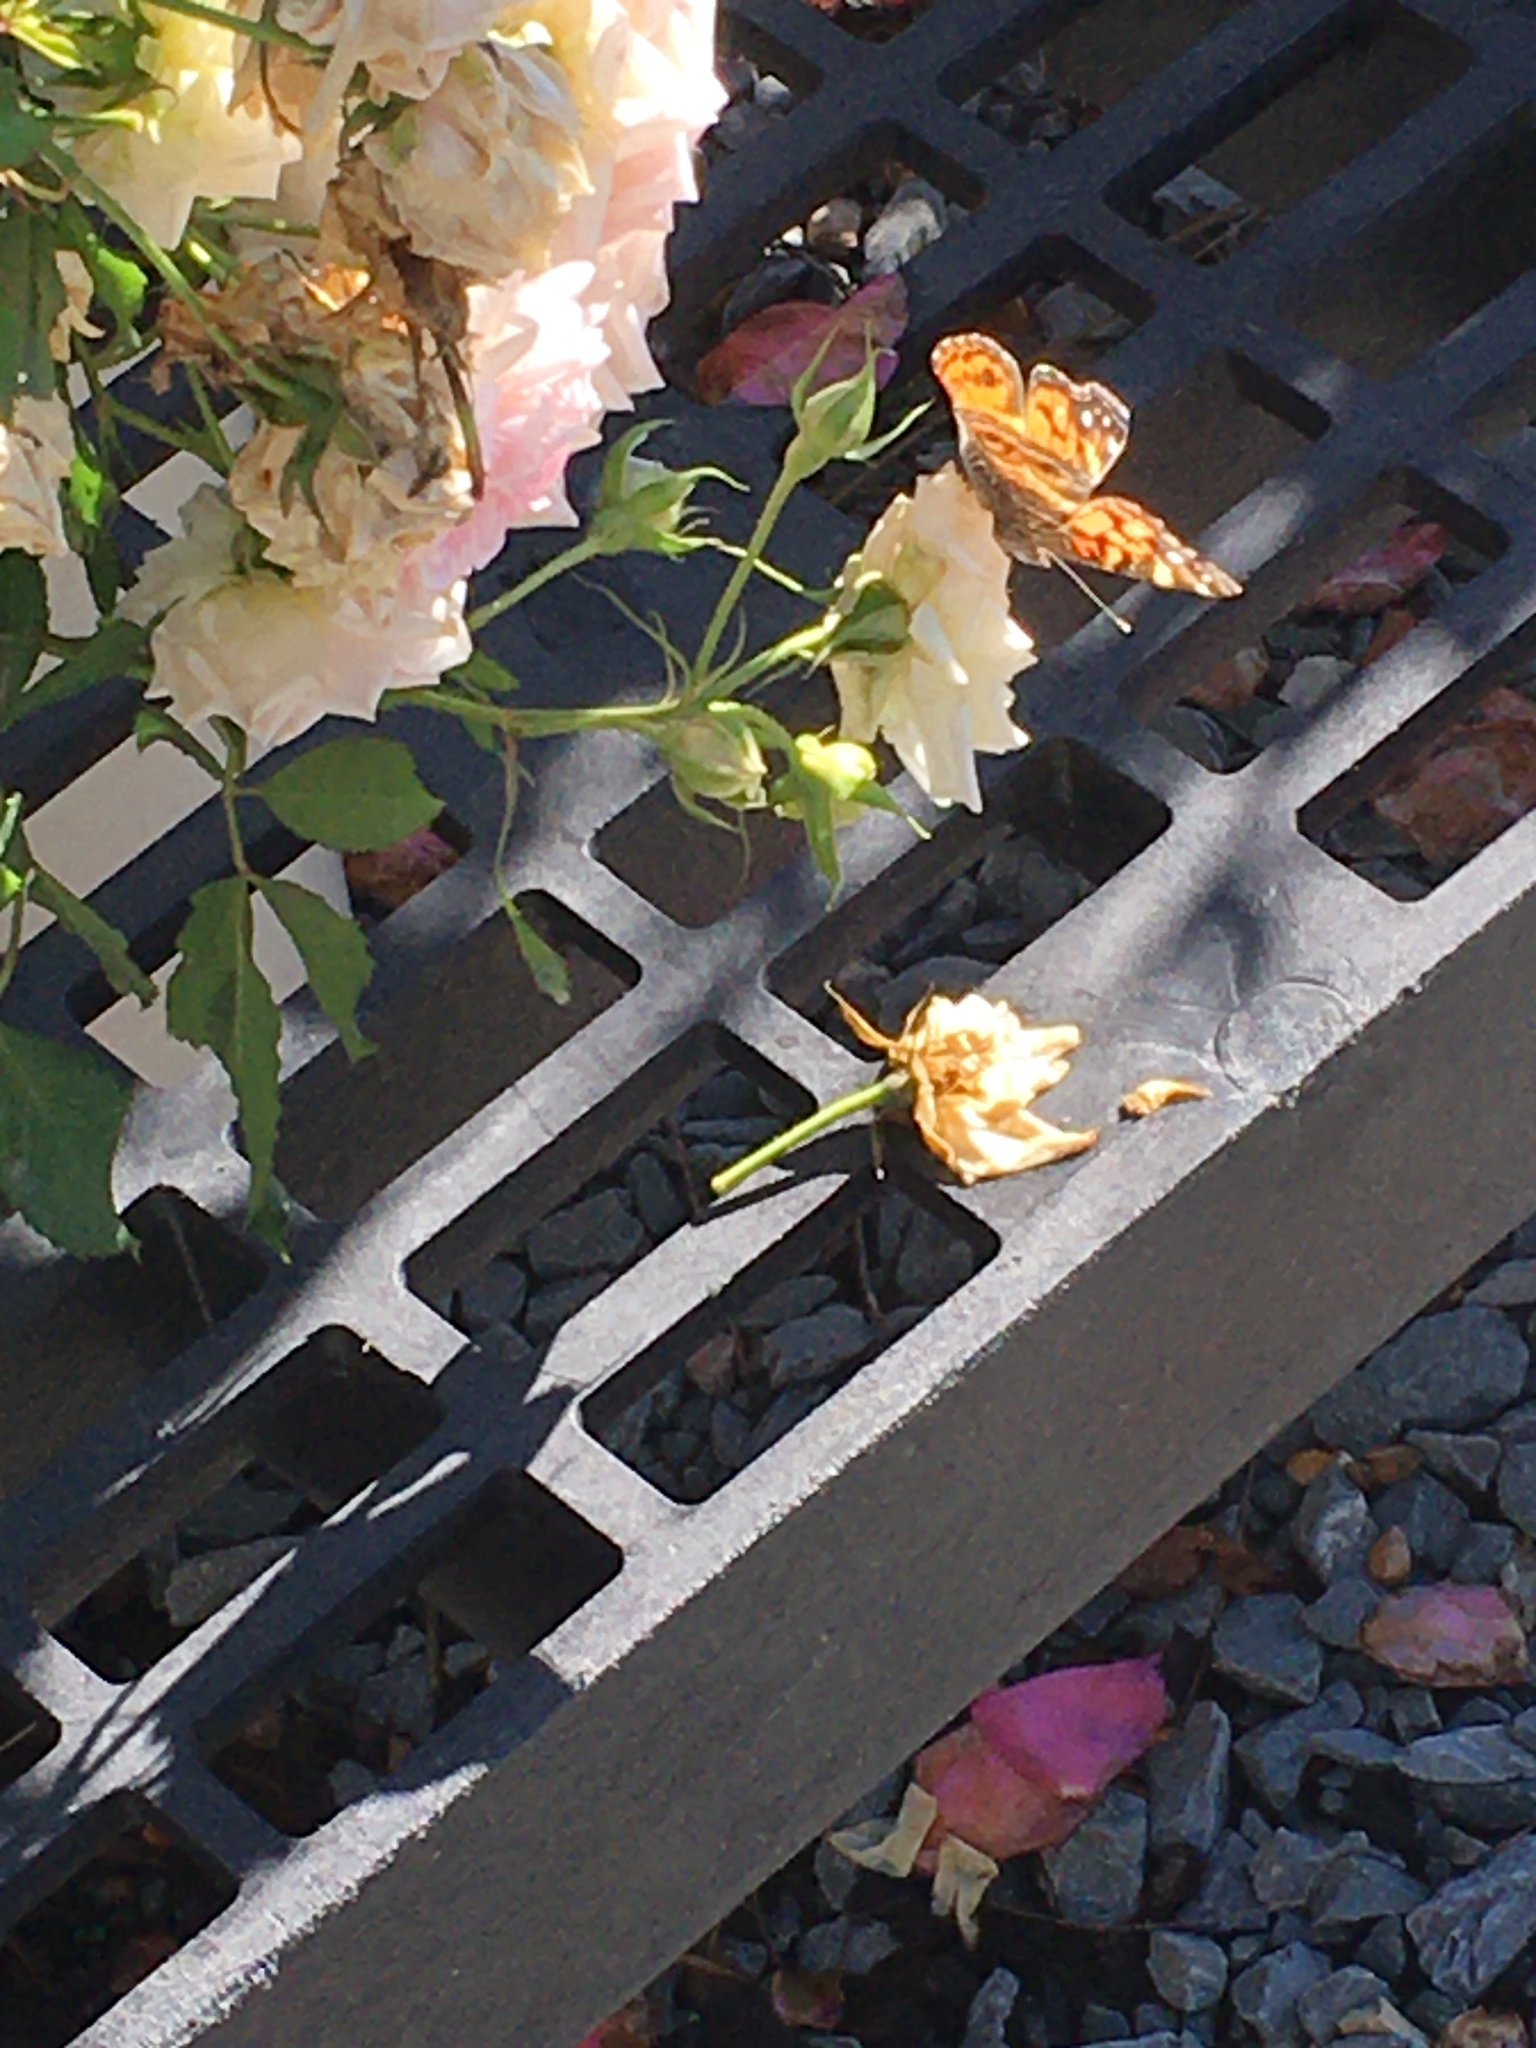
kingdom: Animalia
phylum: Arthropoda
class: Insecta
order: Lepidoptera
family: Nymphalidae
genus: Vanessa
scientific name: Vanessa virginiensis
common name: American lady
